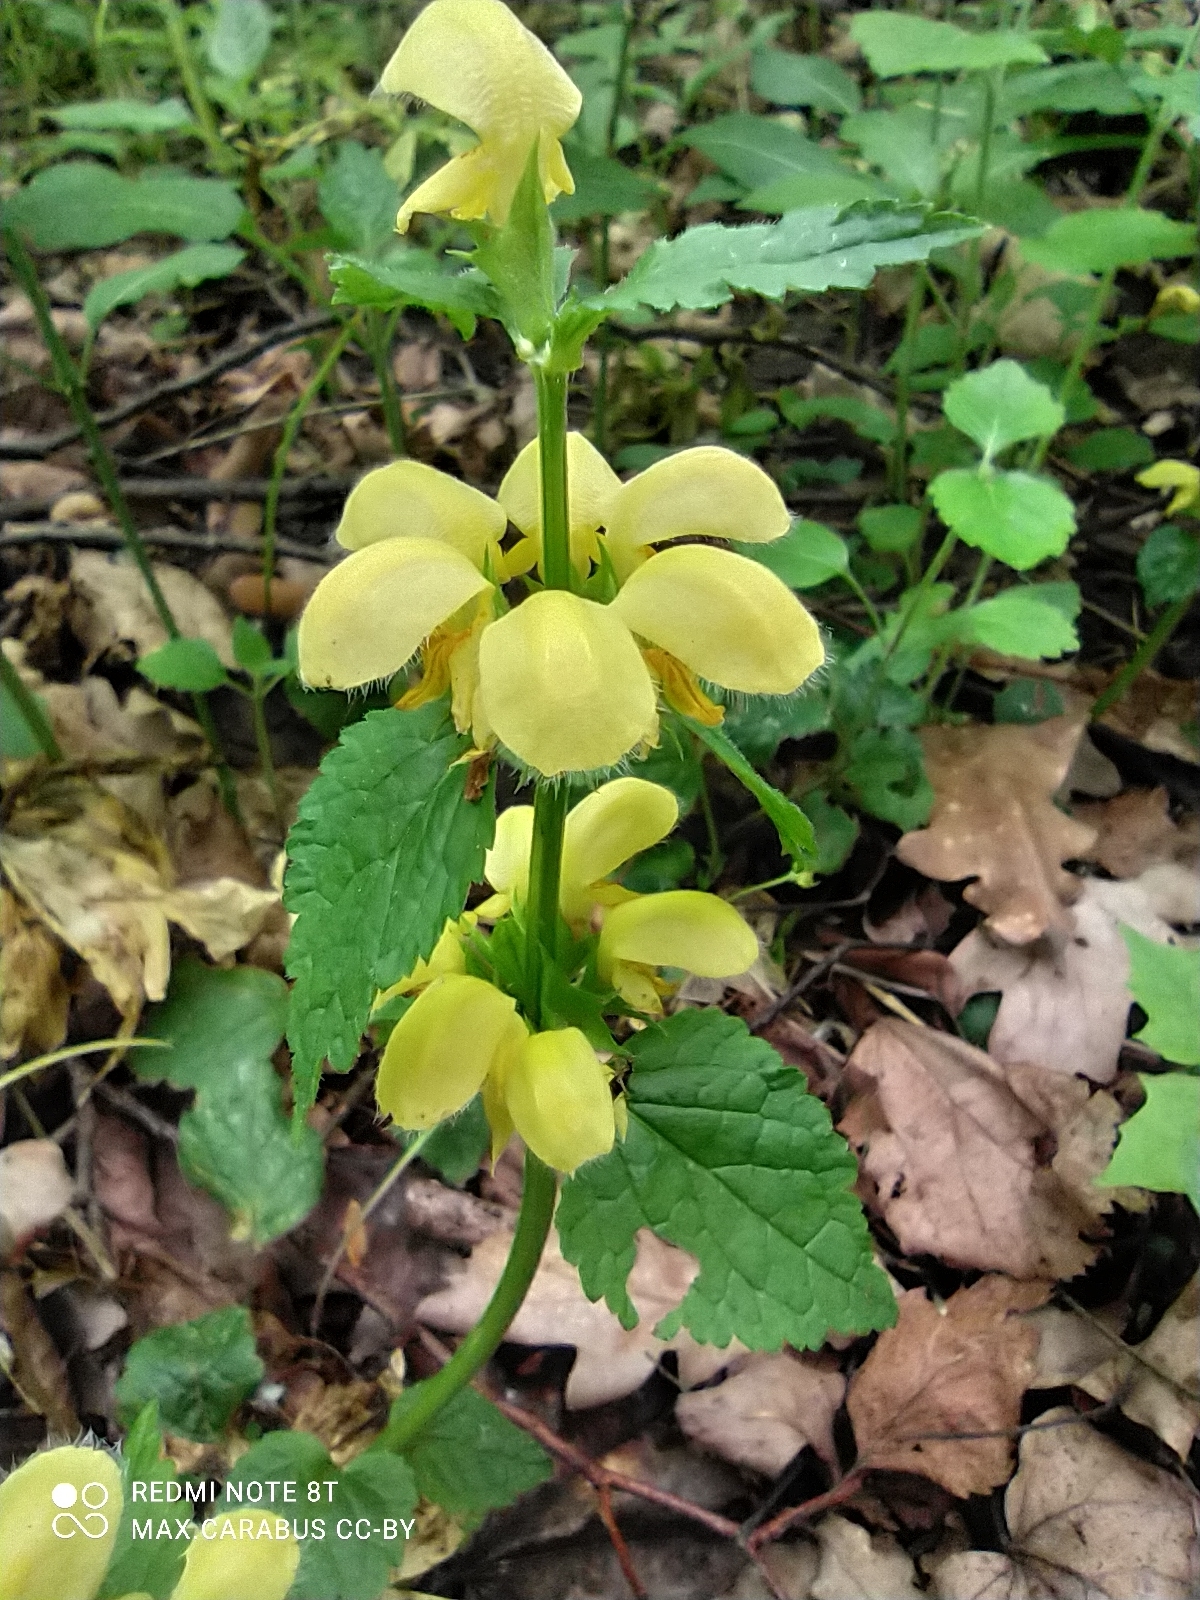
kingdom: Plantae
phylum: Tracheophyta
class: Magnoliopsida
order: Lamiales
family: Lamiaceae
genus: Lamium
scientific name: Lamium galeobdolon
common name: Yellow archangel
